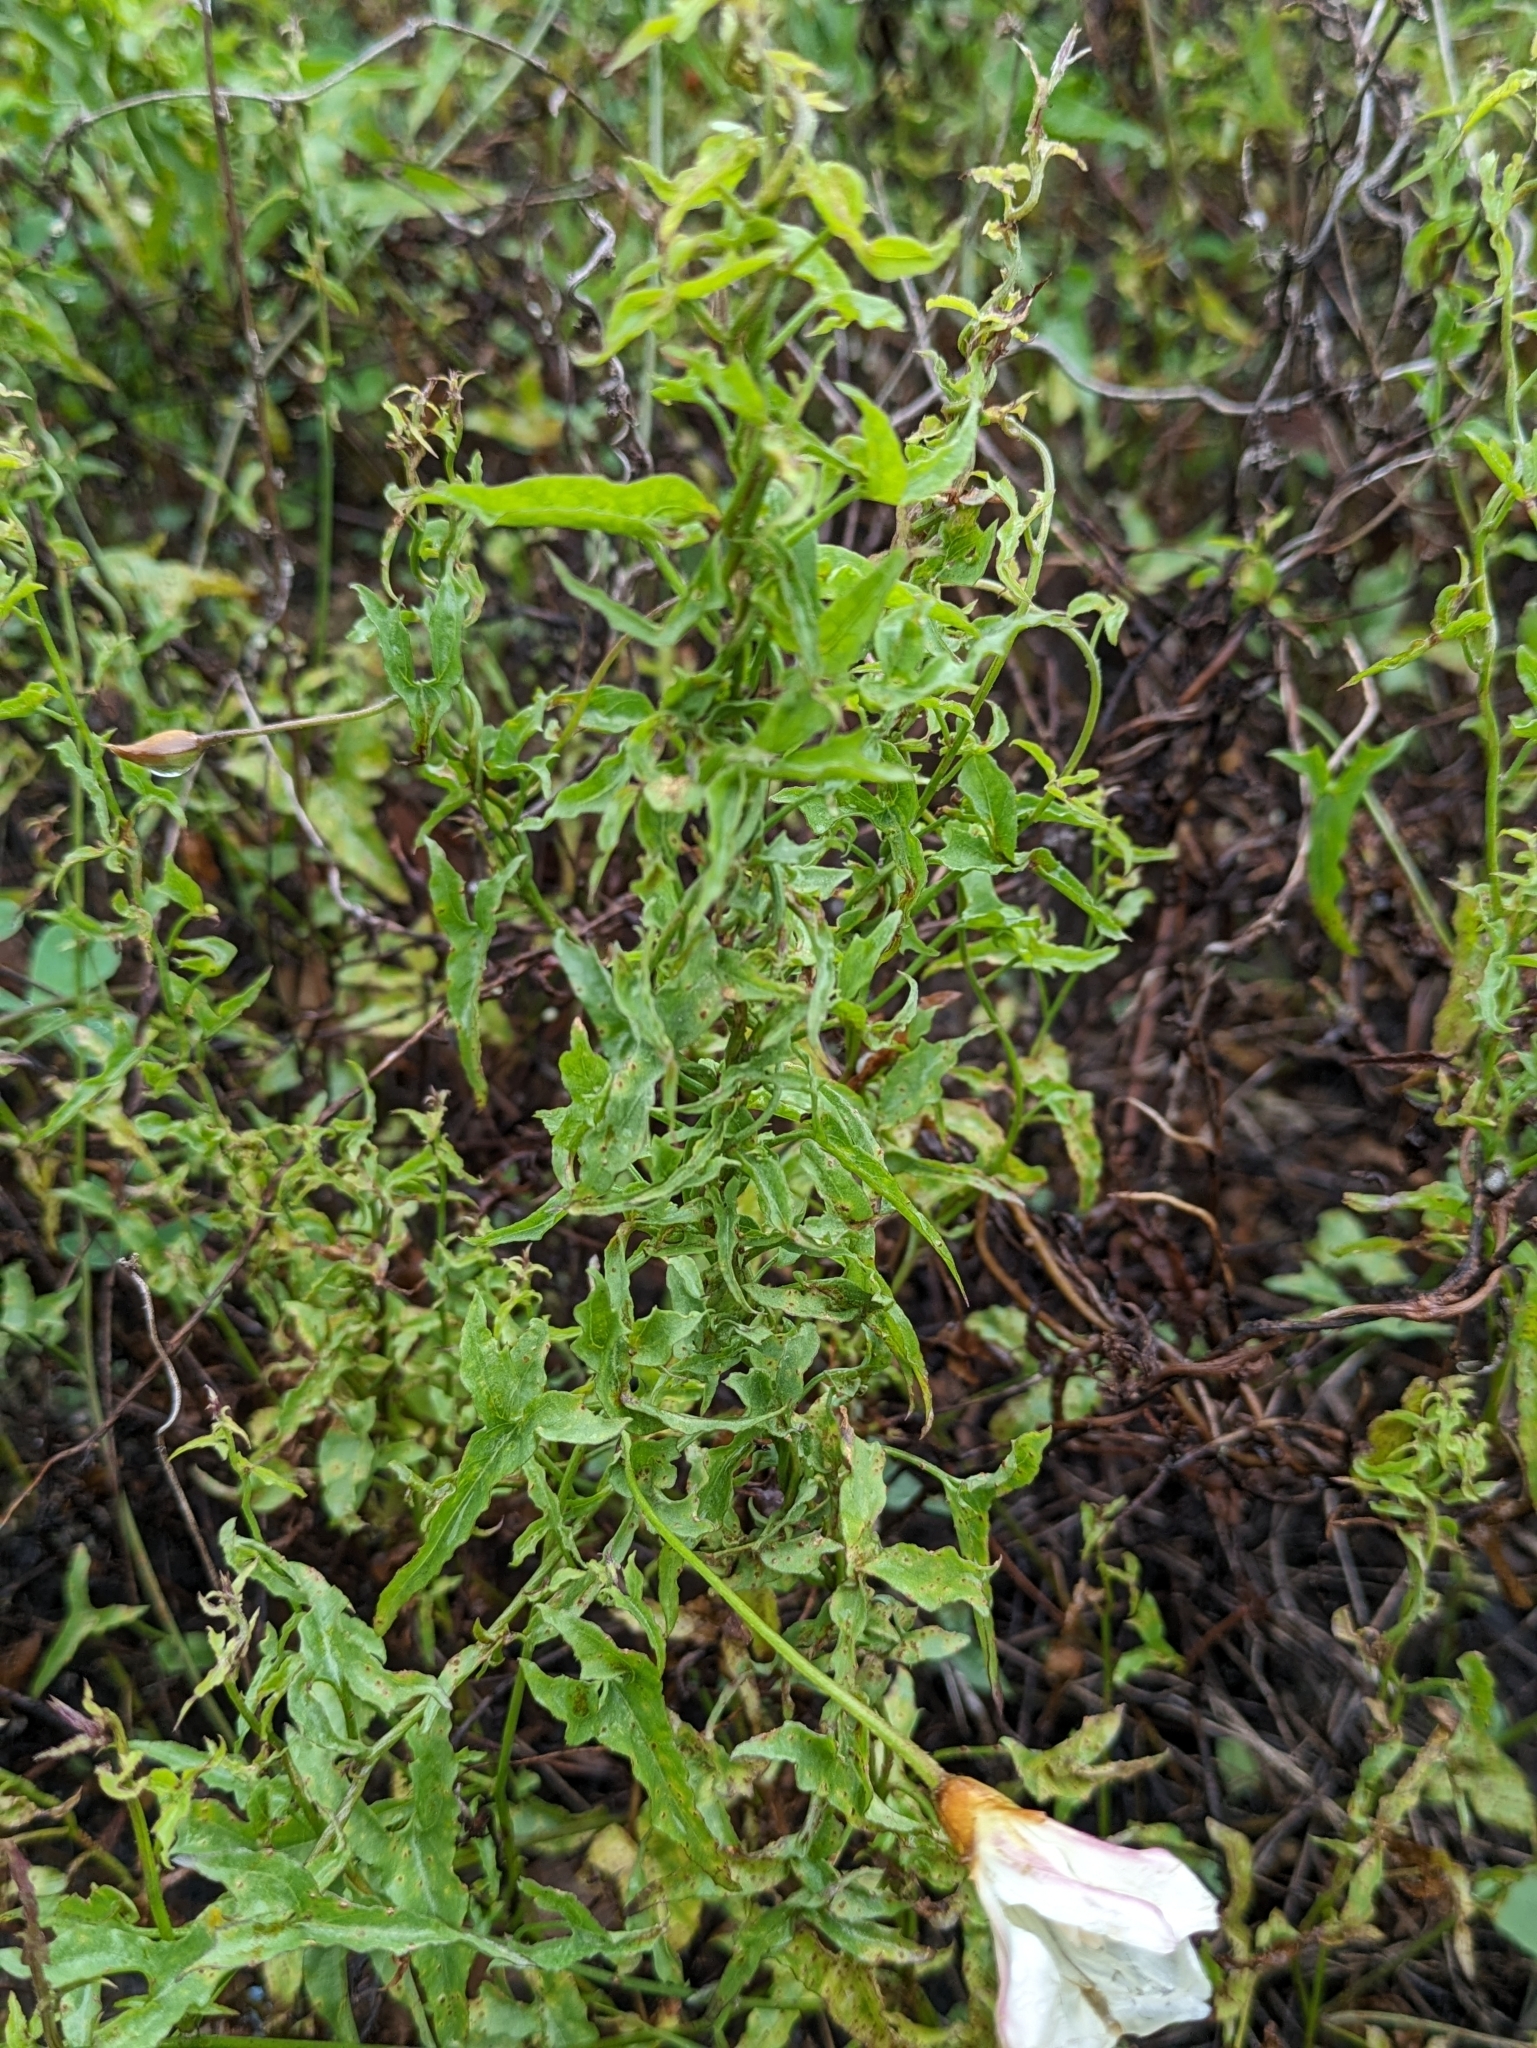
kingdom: Plantae
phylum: Tracheophyta
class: Magnoliopsida
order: Solanales
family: Convolvulaceae
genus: Calystegia
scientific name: Calystegia macrostegia
